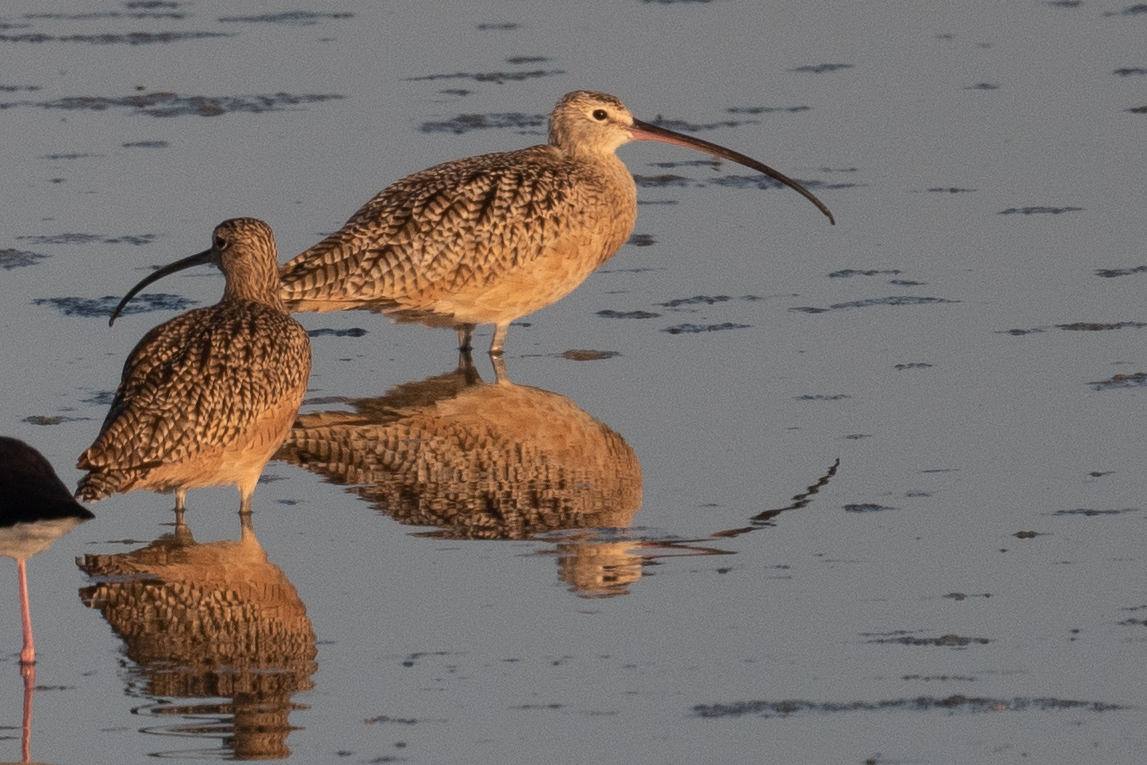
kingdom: Animalia
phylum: Chordata
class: Aves
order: Charadriiformes
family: Scolopacidae
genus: Numenius
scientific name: Numenius americanus
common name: Long-billed curlew
